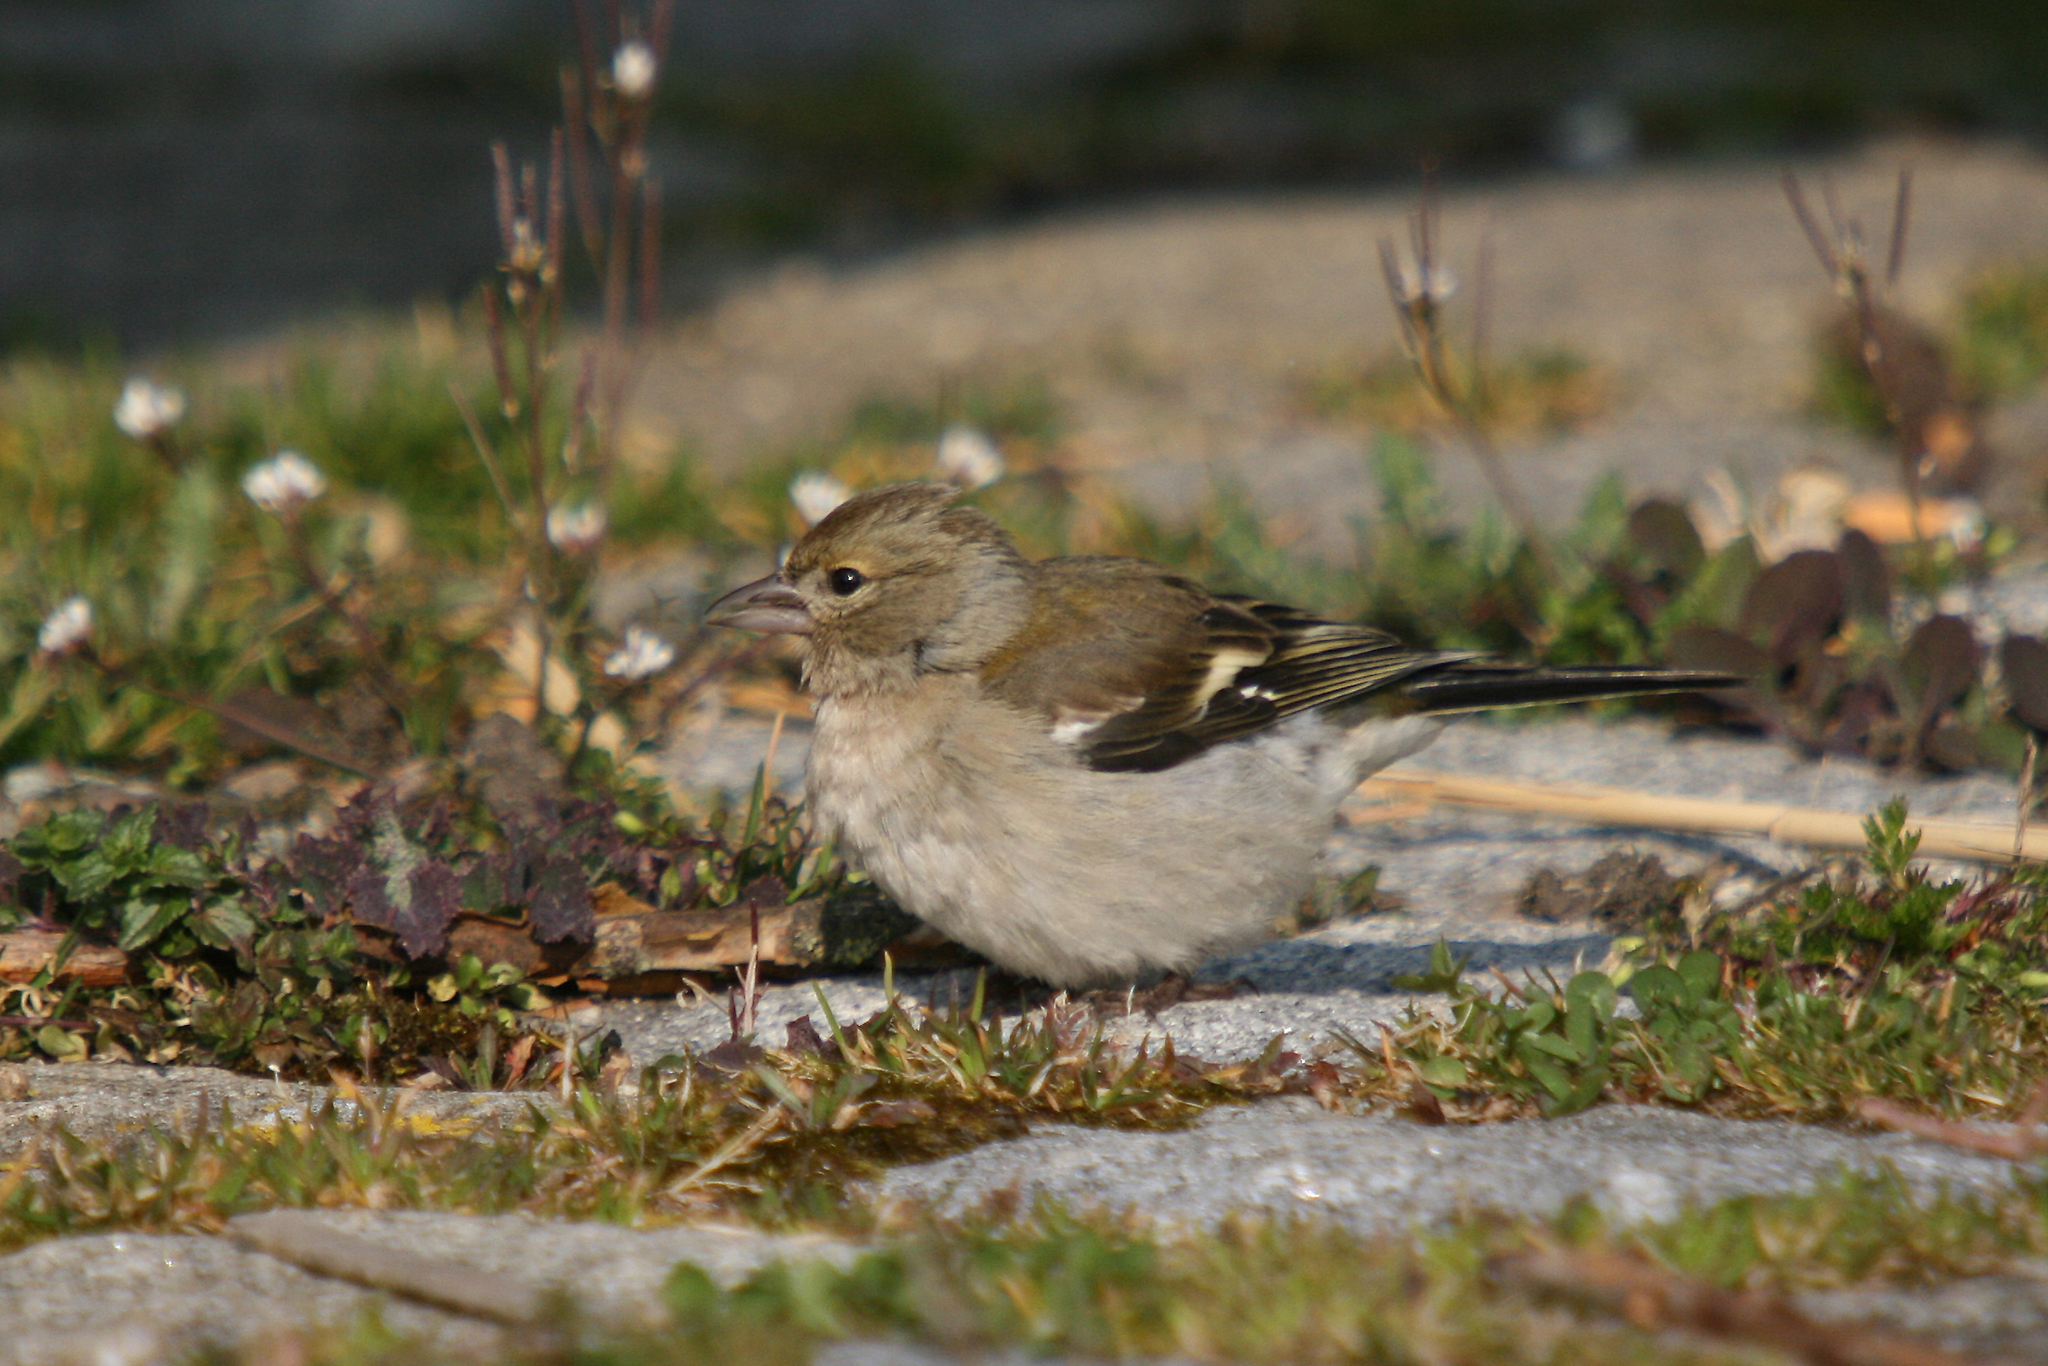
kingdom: Animalia
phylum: Chordata
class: Aves
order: Passeriformes
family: Fringillidae
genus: Fringilla
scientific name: Fringilla coelebs
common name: Common chaffinch
